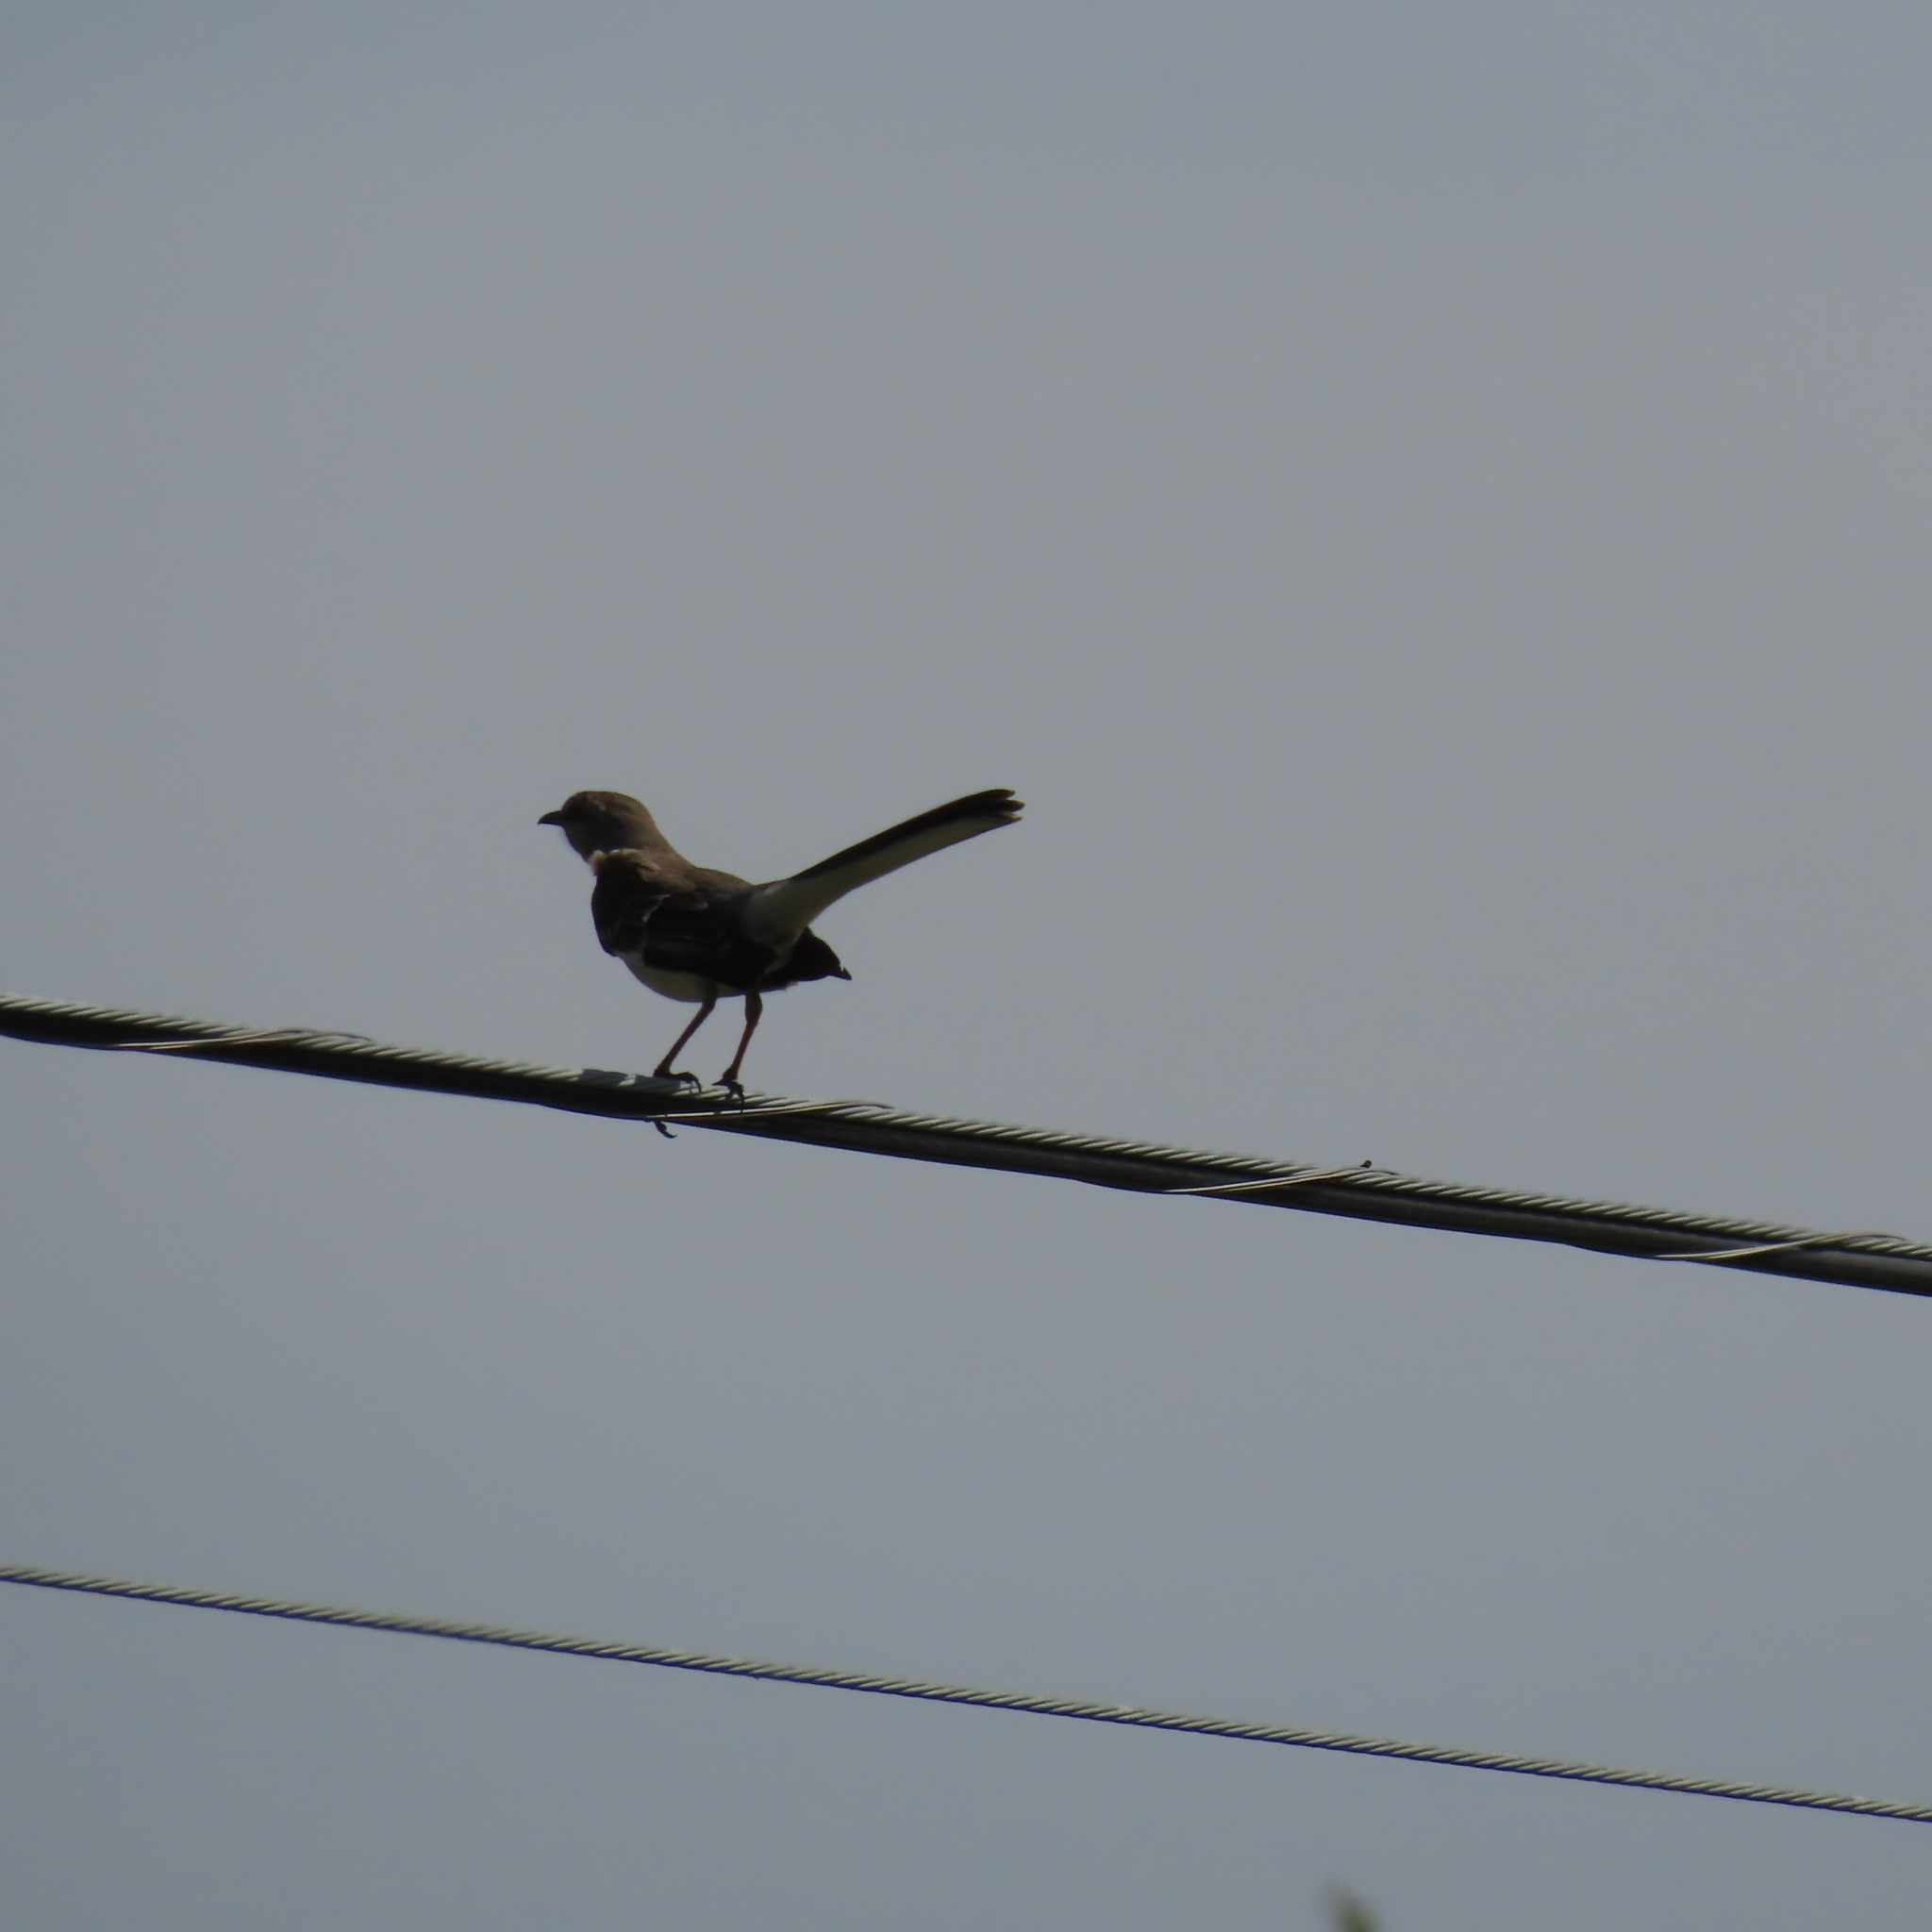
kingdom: Animalia
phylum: Chordata
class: Aves
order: Passeriformes
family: Mimidae
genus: Mimus
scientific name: Mimus polyglottos
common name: Northern mockingbird
